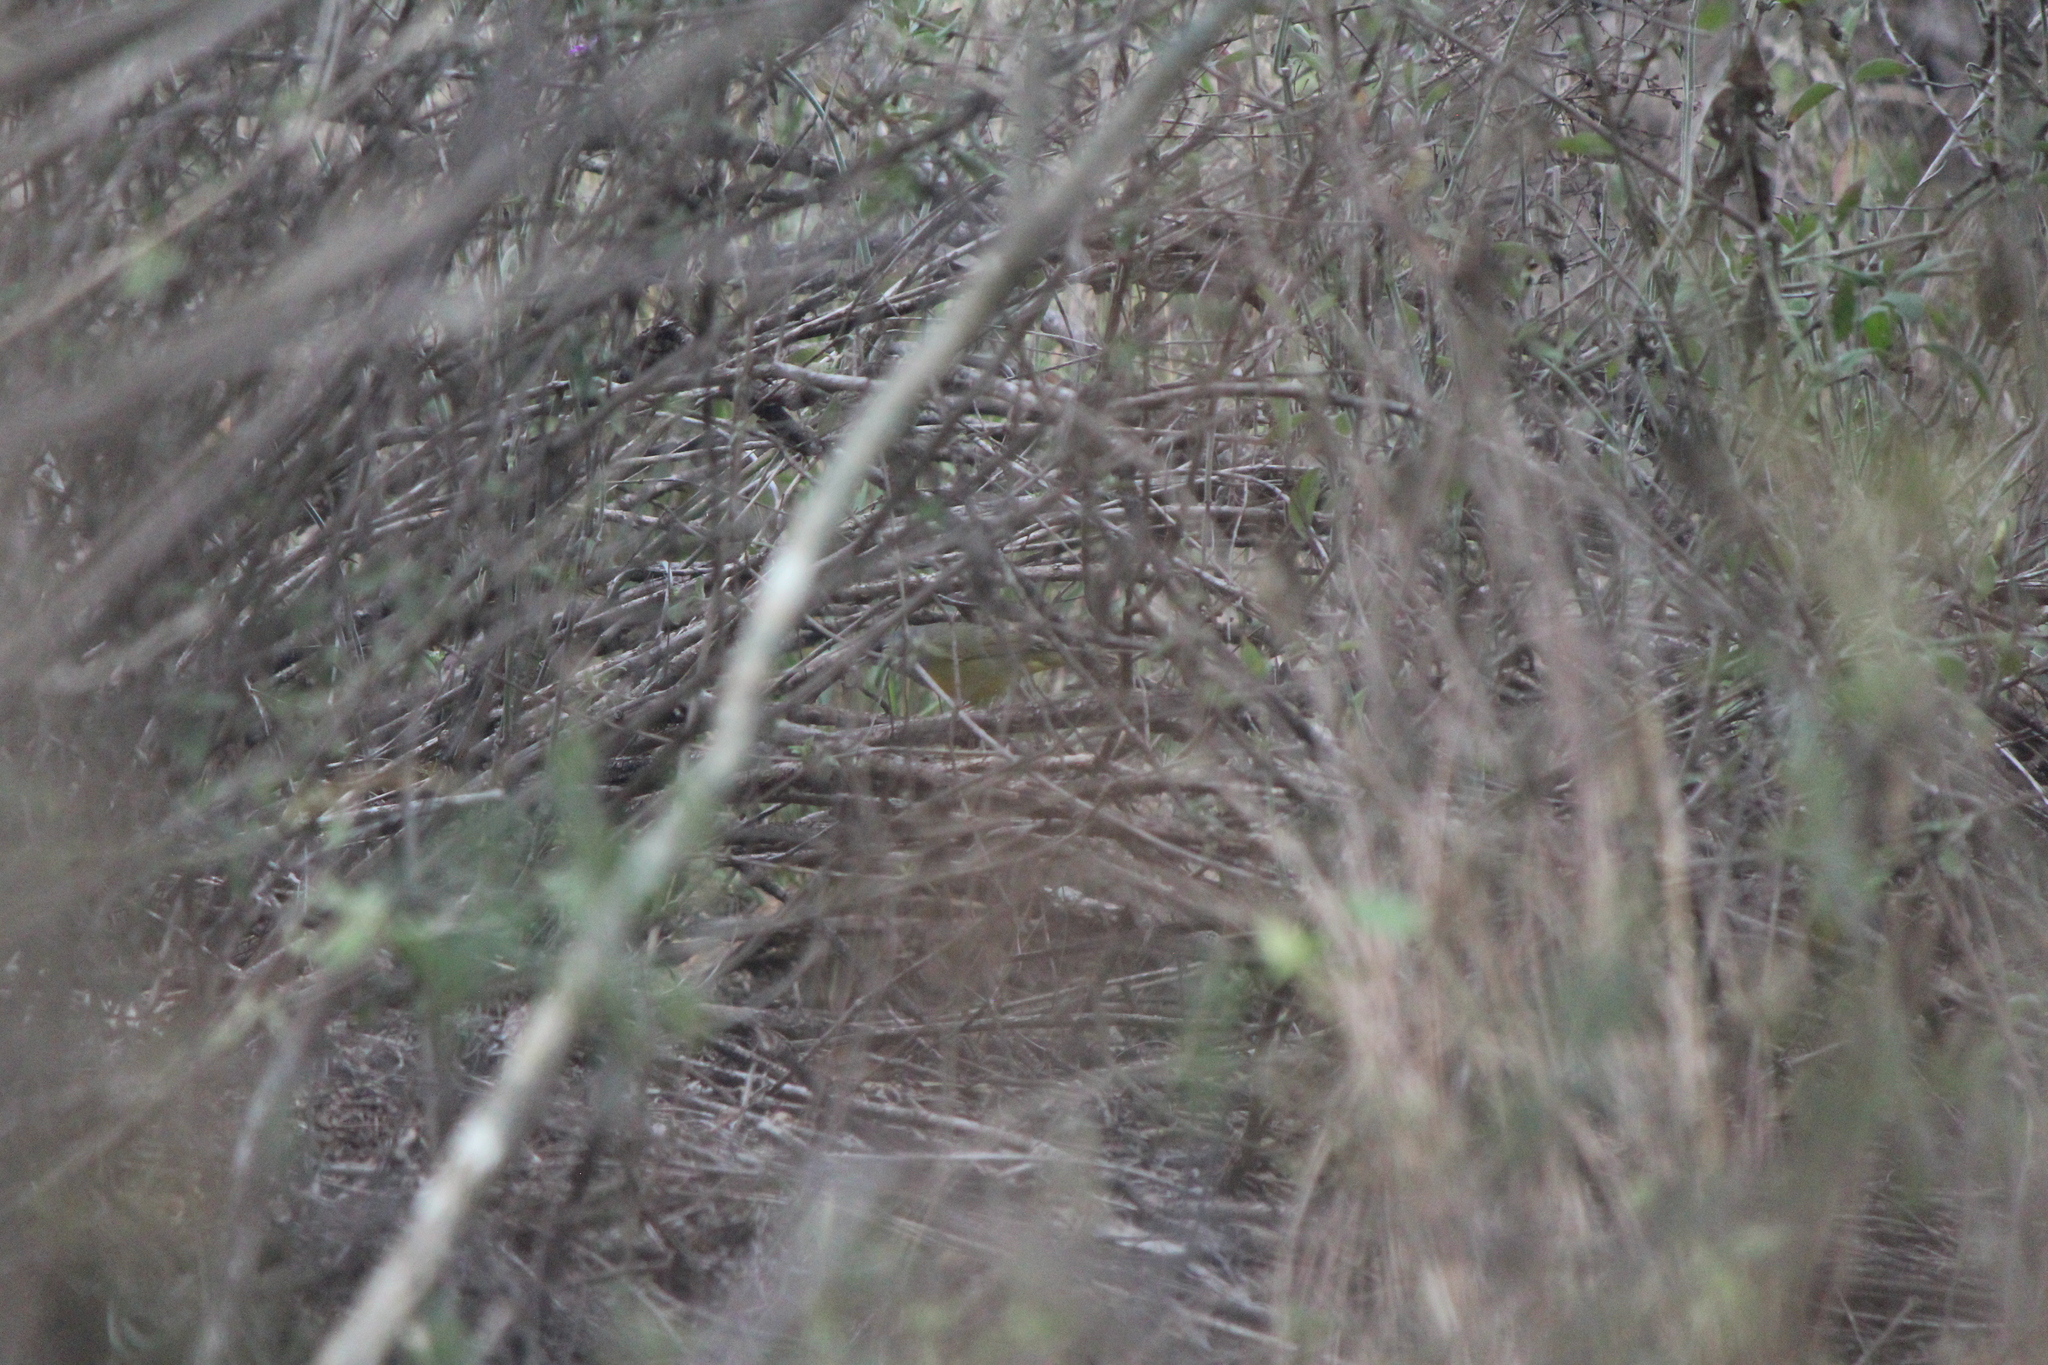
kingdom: Animalia
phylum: Chordata
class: Aves
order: Passeriformes
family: Parulidae
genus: Geothlypis
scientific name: Geothlypis tolmiei
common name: Macgillivray's warbler
